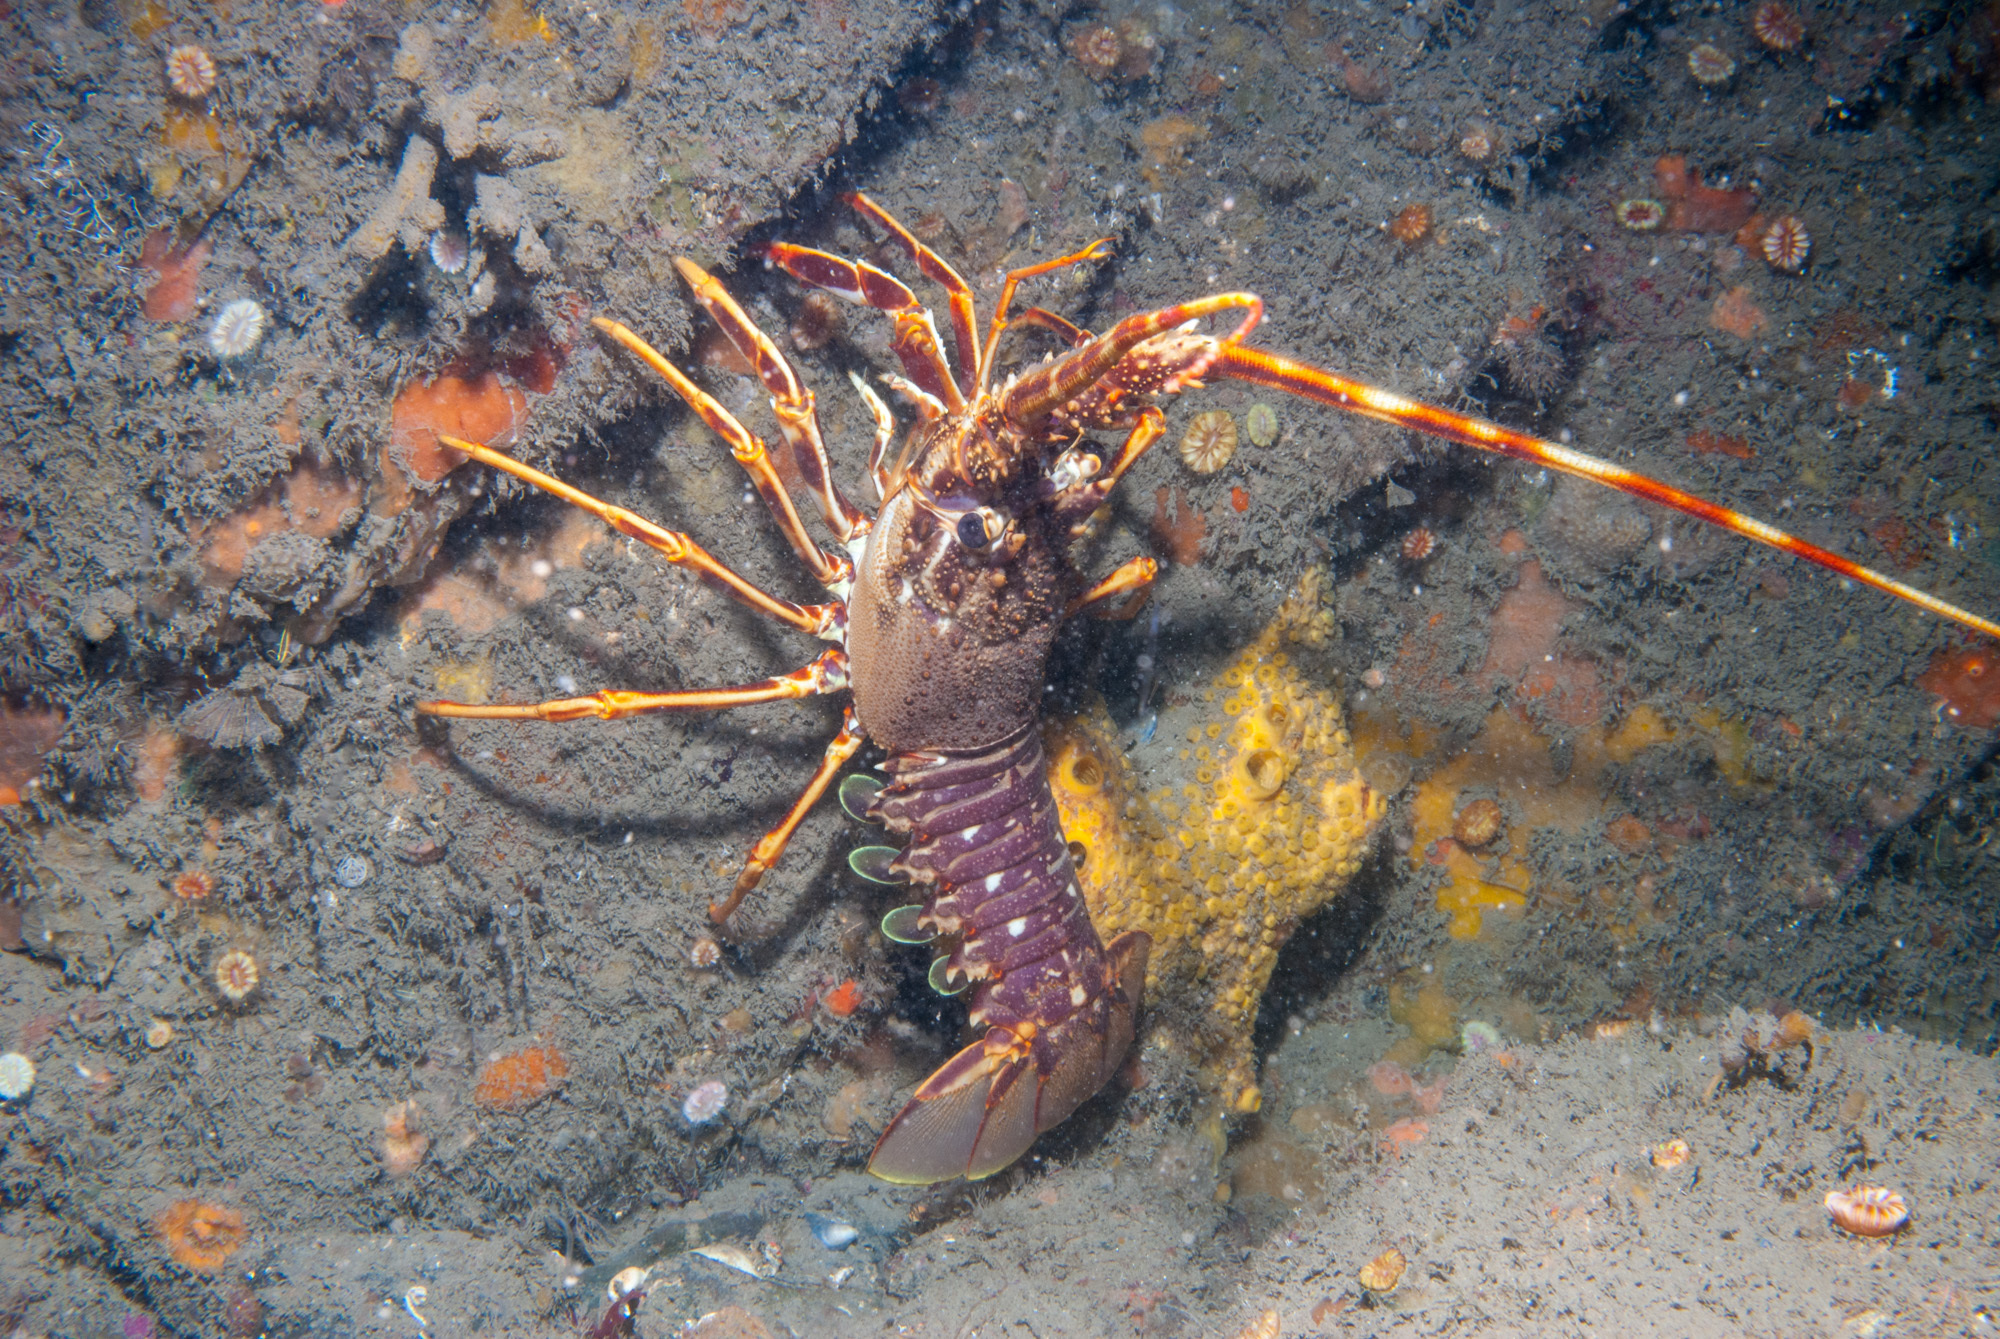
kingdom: Animalia
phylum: Arthropoda
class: Malacostraca
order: Decapoda
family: Palinuridae
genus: Palinurus
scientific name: Palinurus elephas
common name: European spiny lobster
